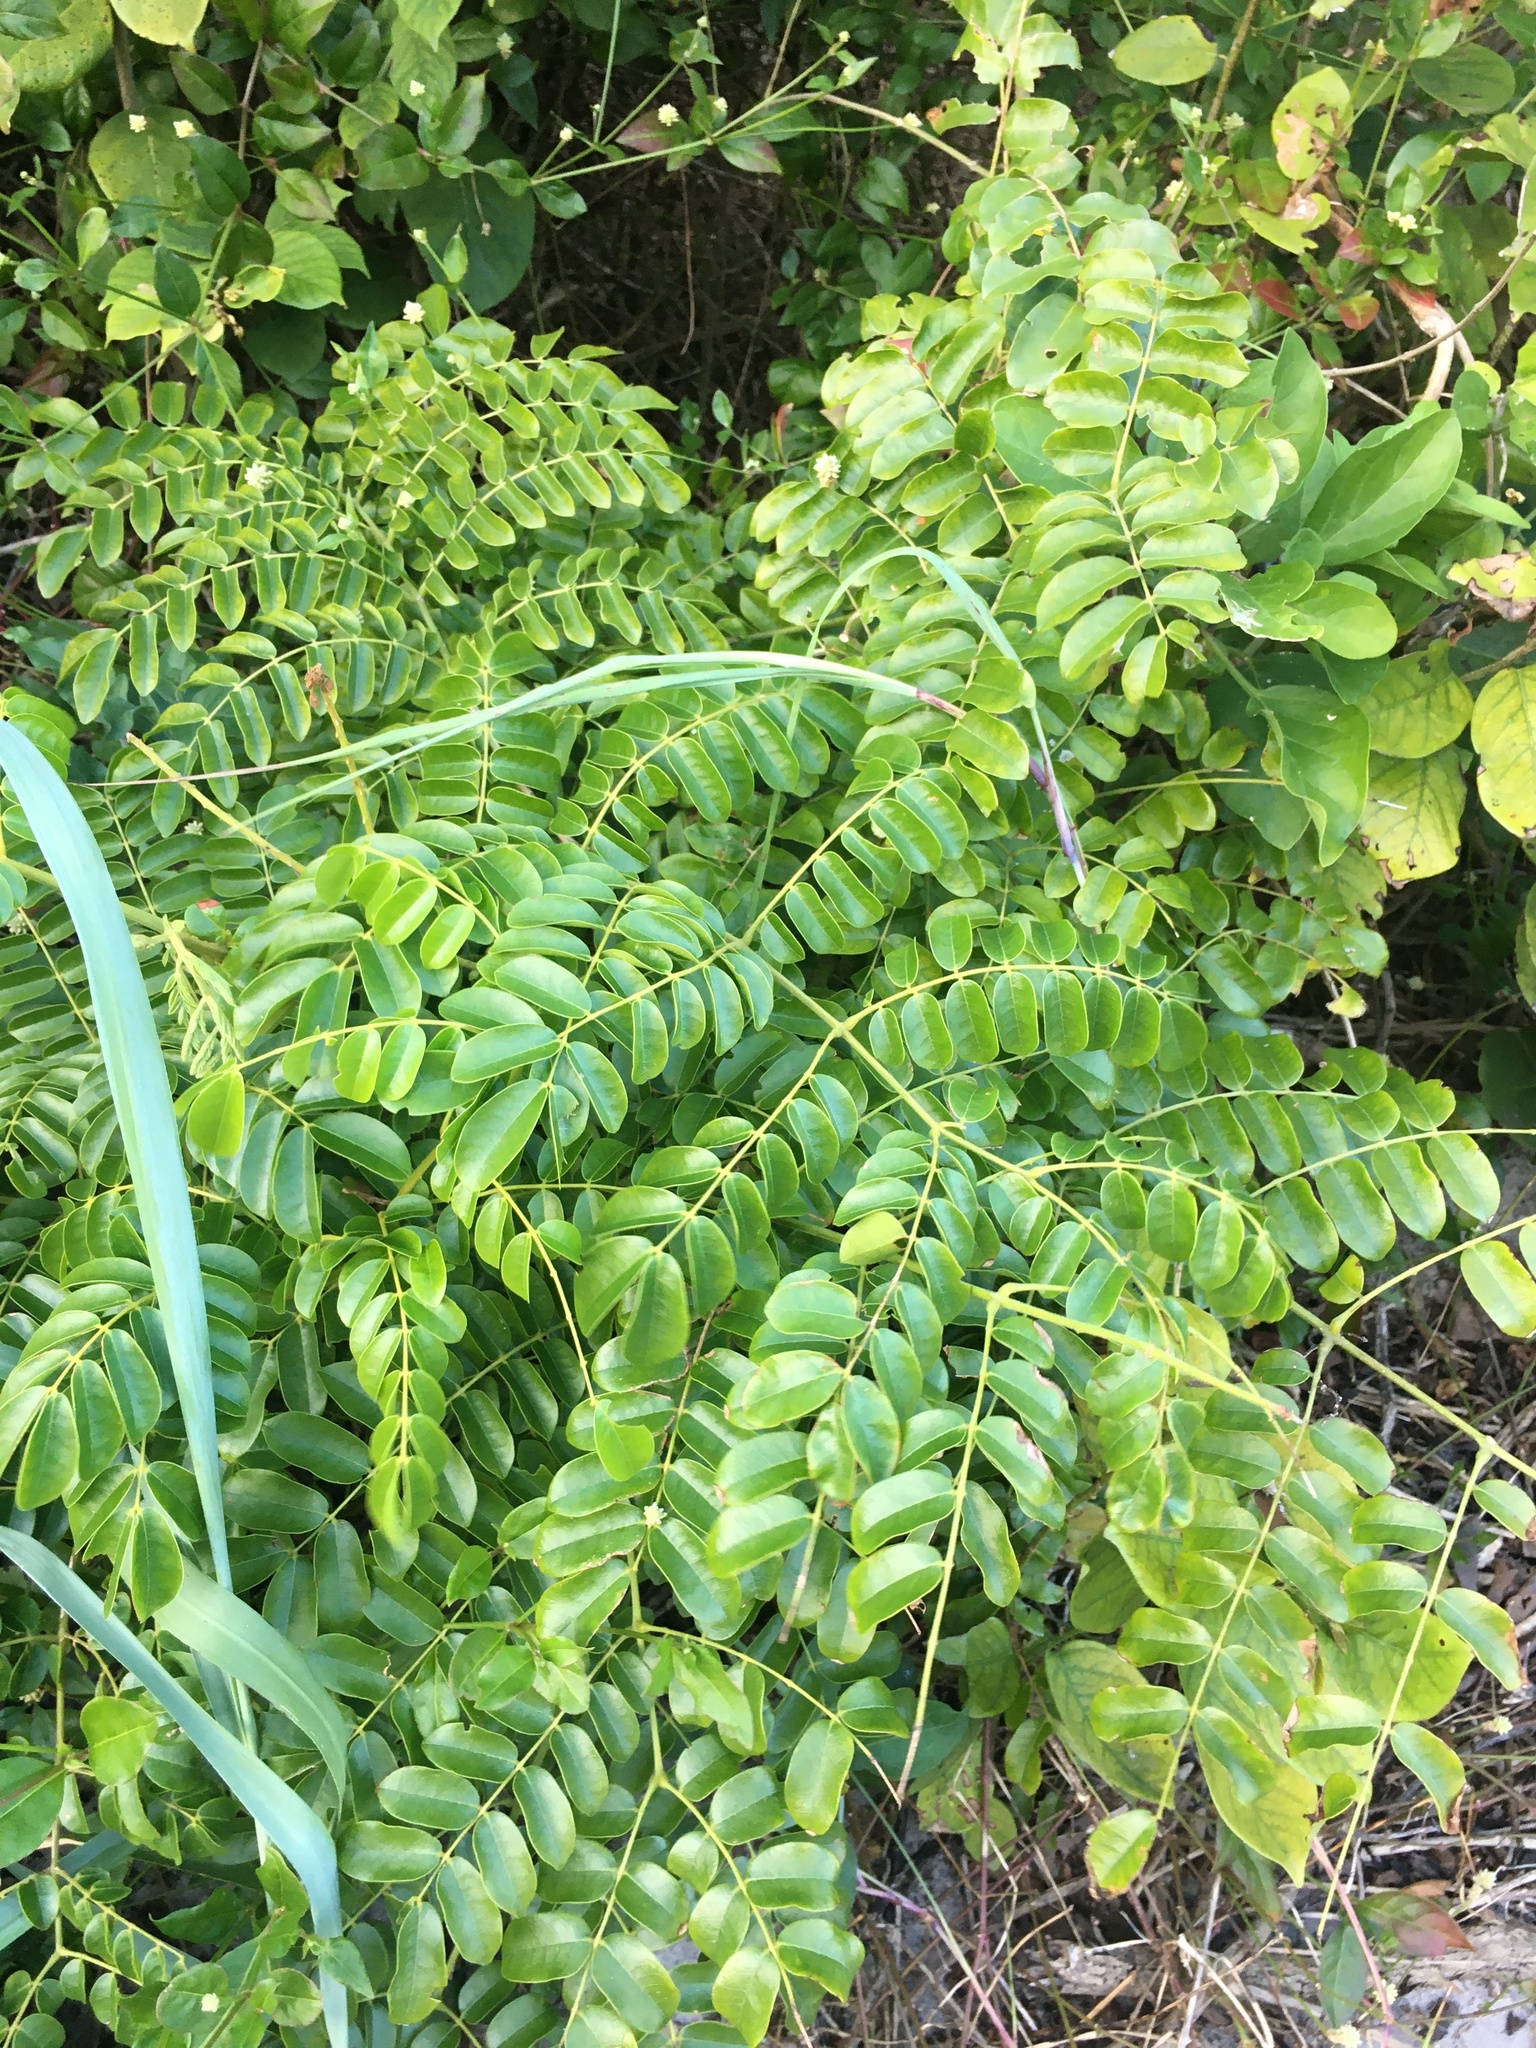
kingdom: Plantae
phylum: Tracheophyta
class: Magnoliopsida
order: Fabales
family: Fabaceae
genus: Guilandina
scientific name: Guilandina bonduc
